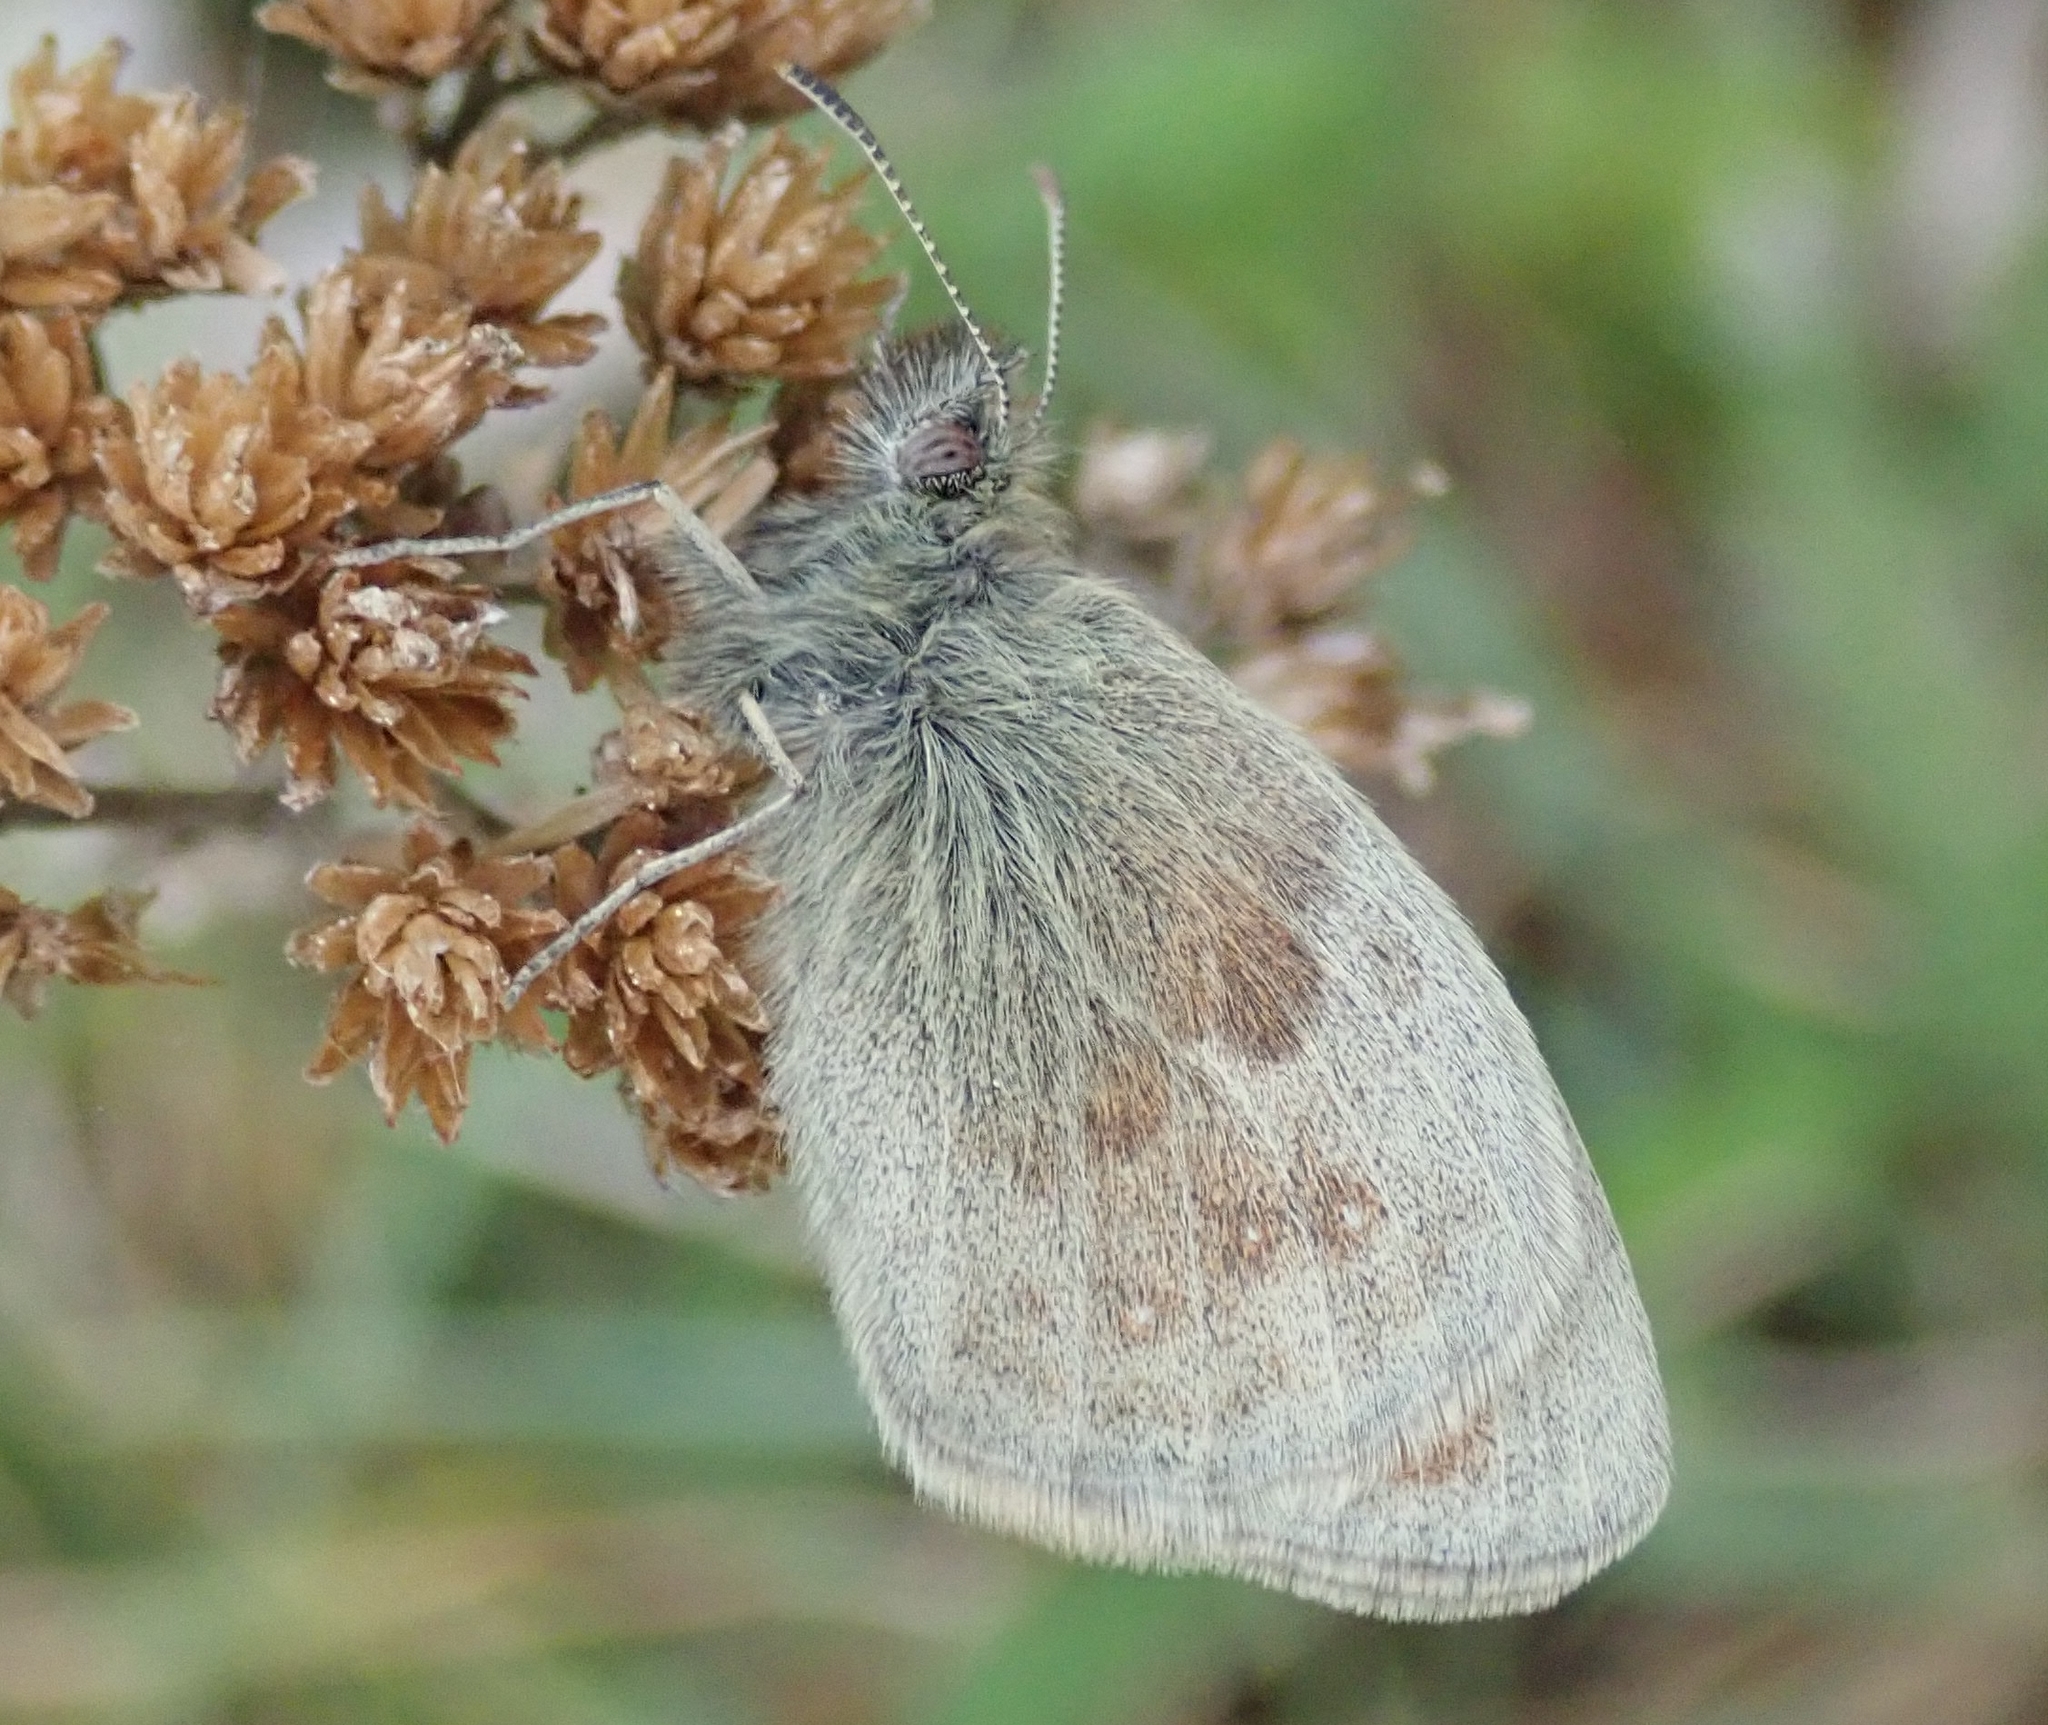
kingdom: Animalia
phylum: Arthropoda
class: Insecta
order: Lepidoptera
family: Nymphalidae
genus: Coenonympha
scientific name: Coenonympha pamphilus
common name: Small heath
